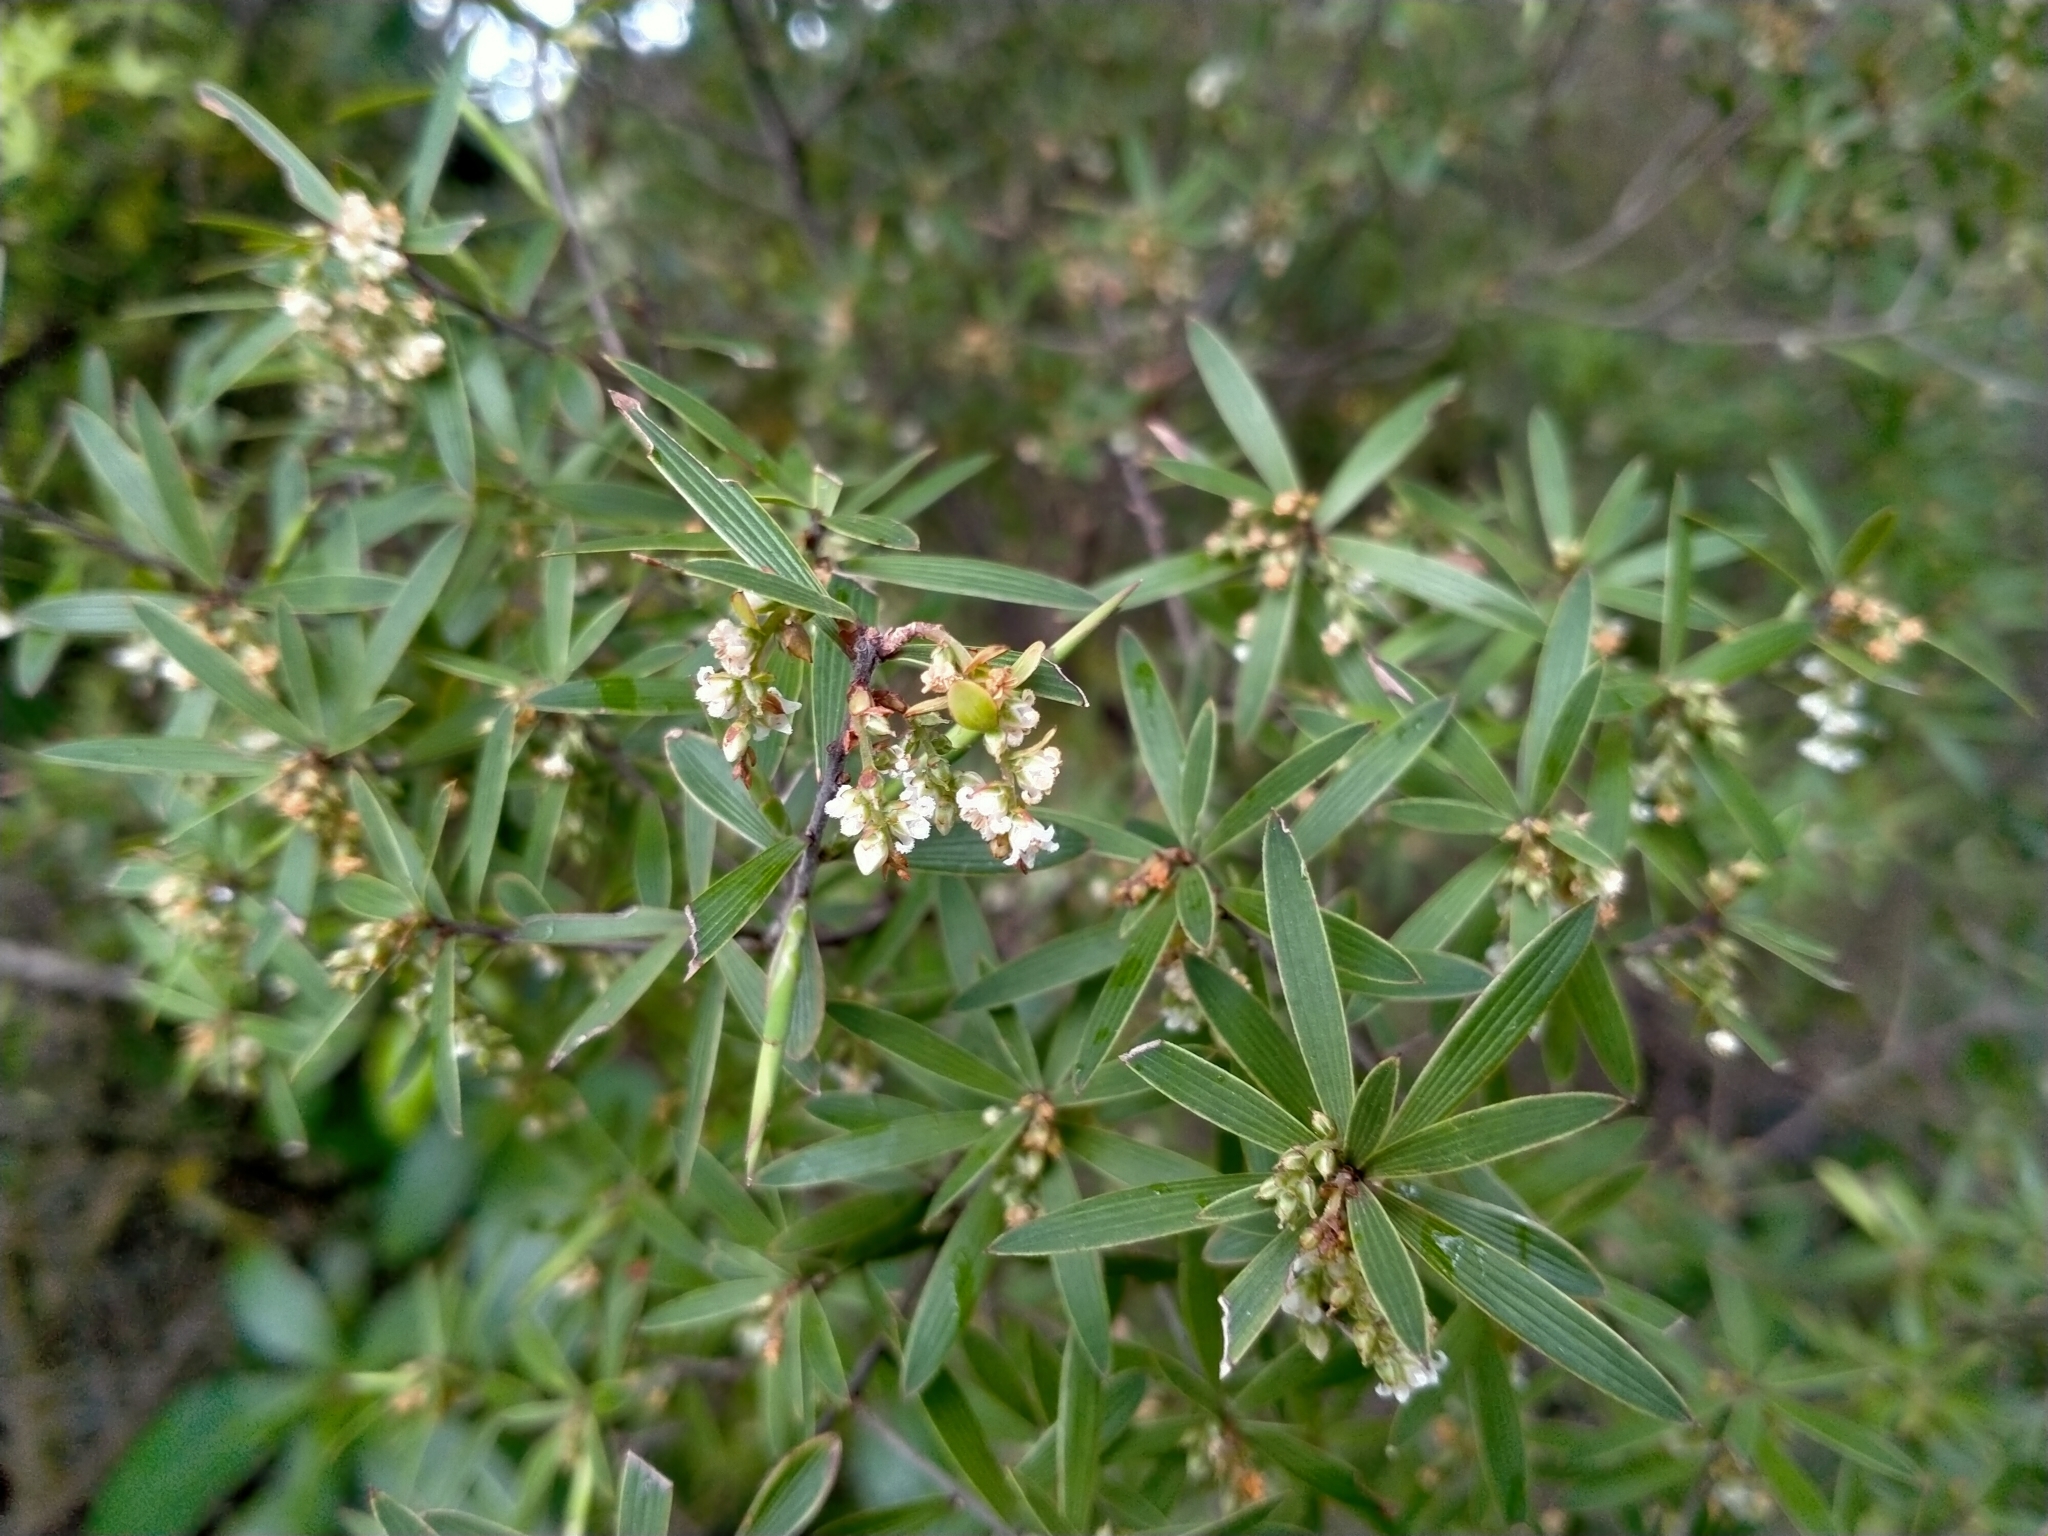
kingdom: Plantae
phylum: Tracheophyta
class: Magnoliopsida
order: Ericales
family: Ericaceae
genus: Leucopogon
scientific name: Leucopogon fasciculatus
